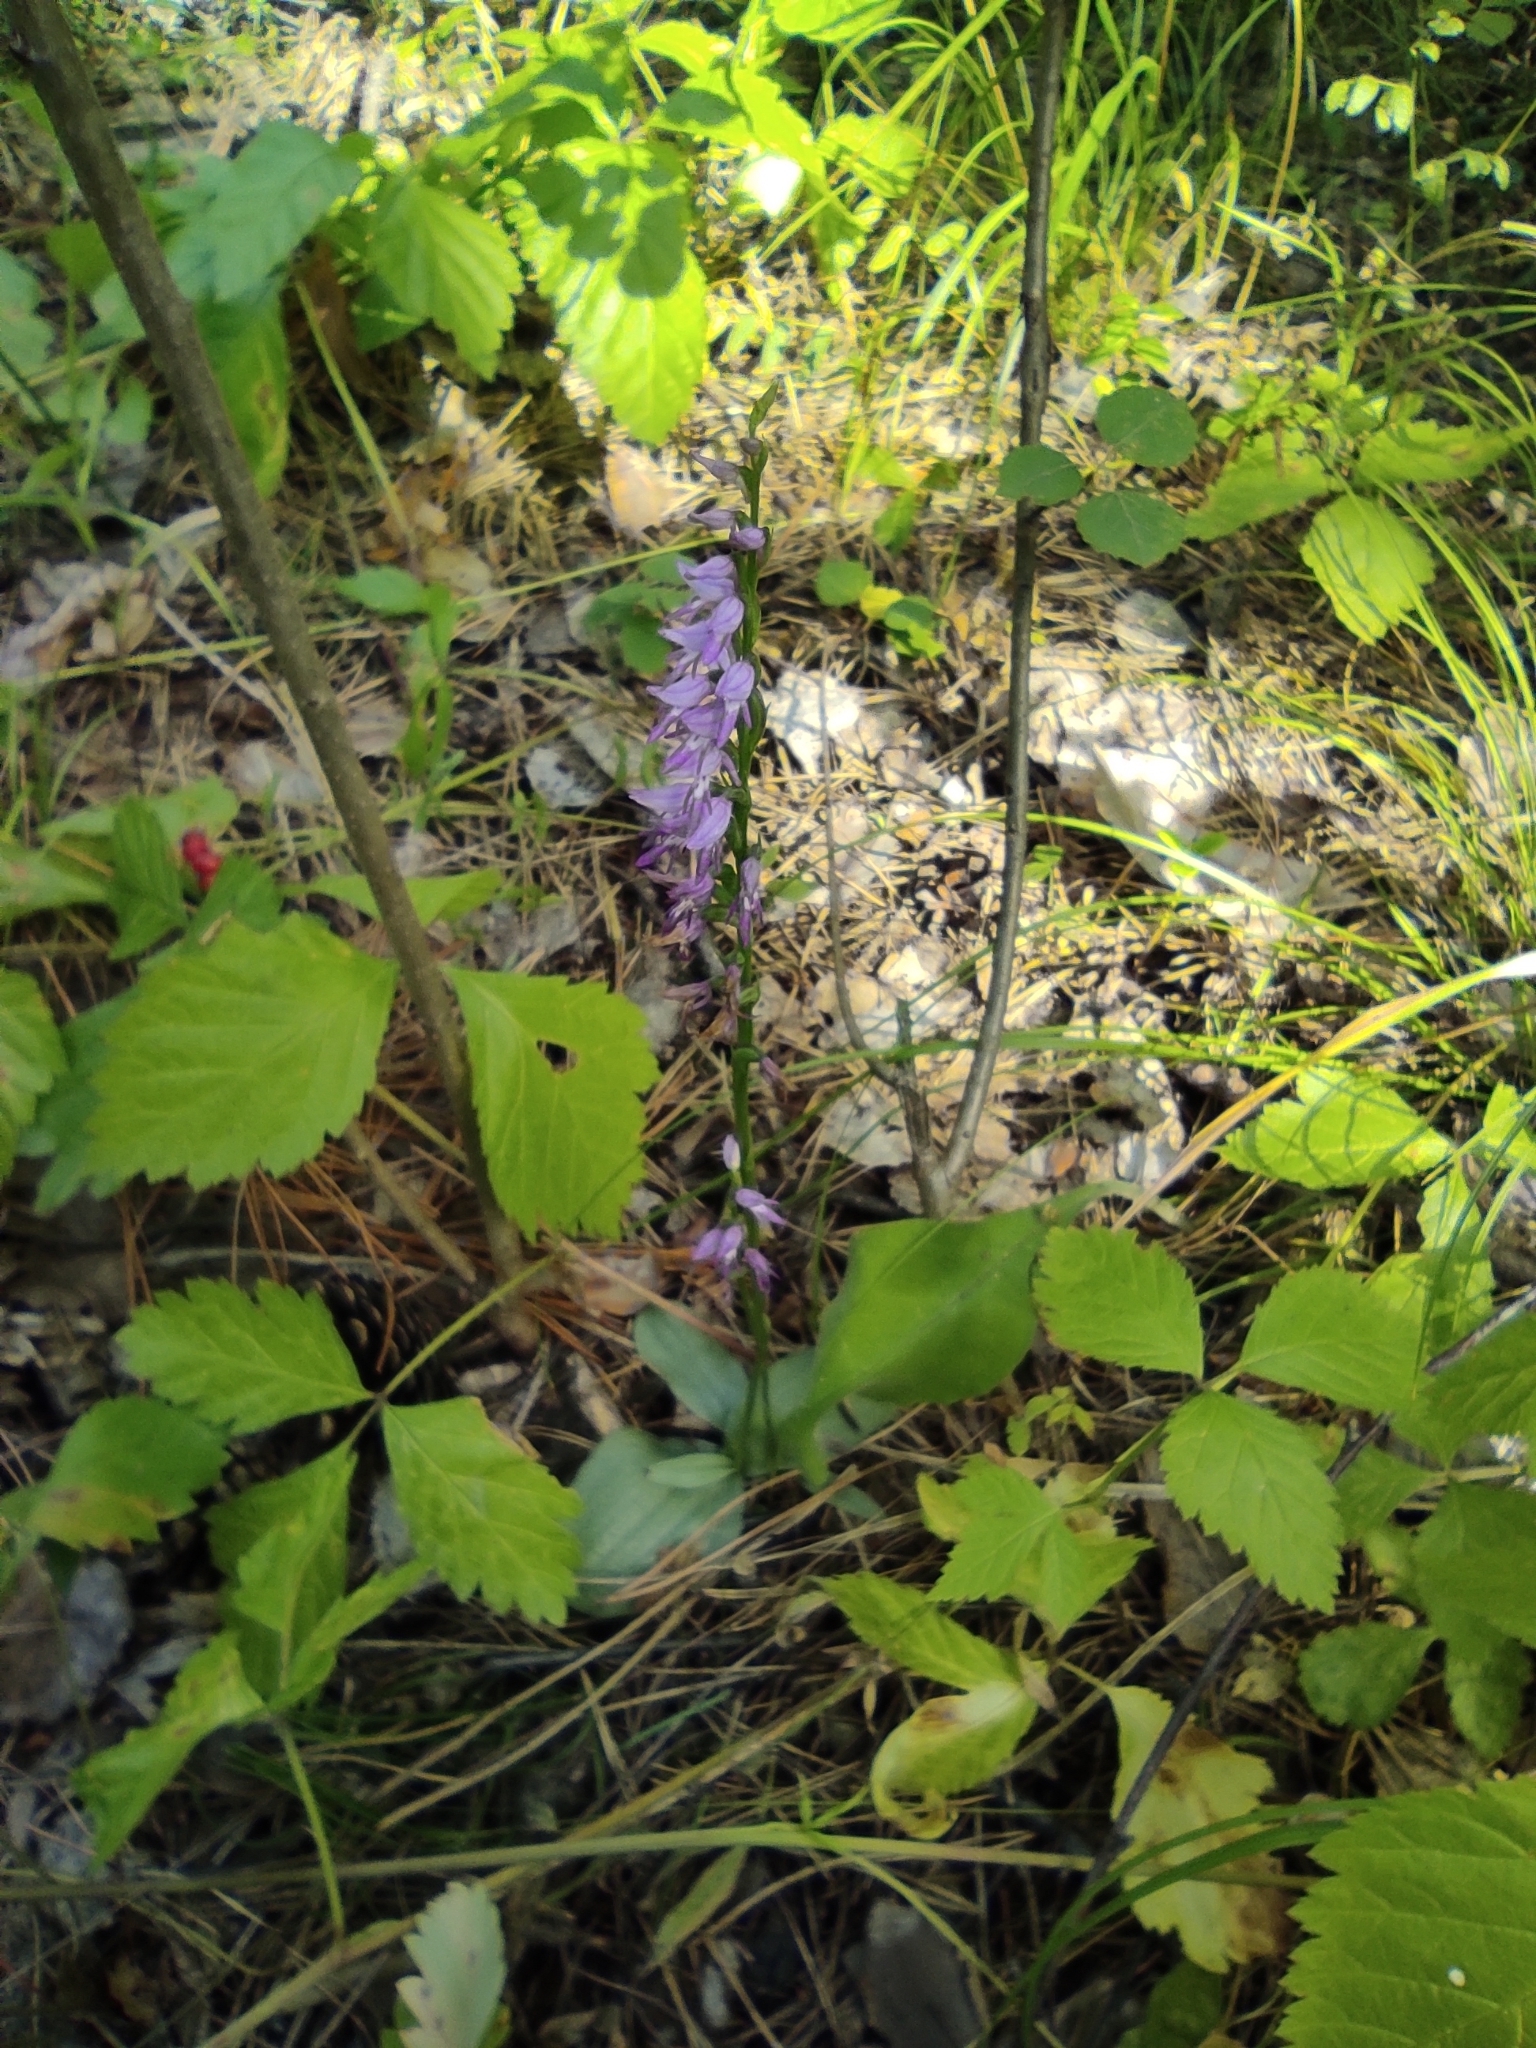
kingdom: Plantae
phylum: Tracheophyta
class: Liliopsida
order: Asparagales
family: Orchidaceae
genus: Hemipilia
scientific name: Hemipilia cucullata
